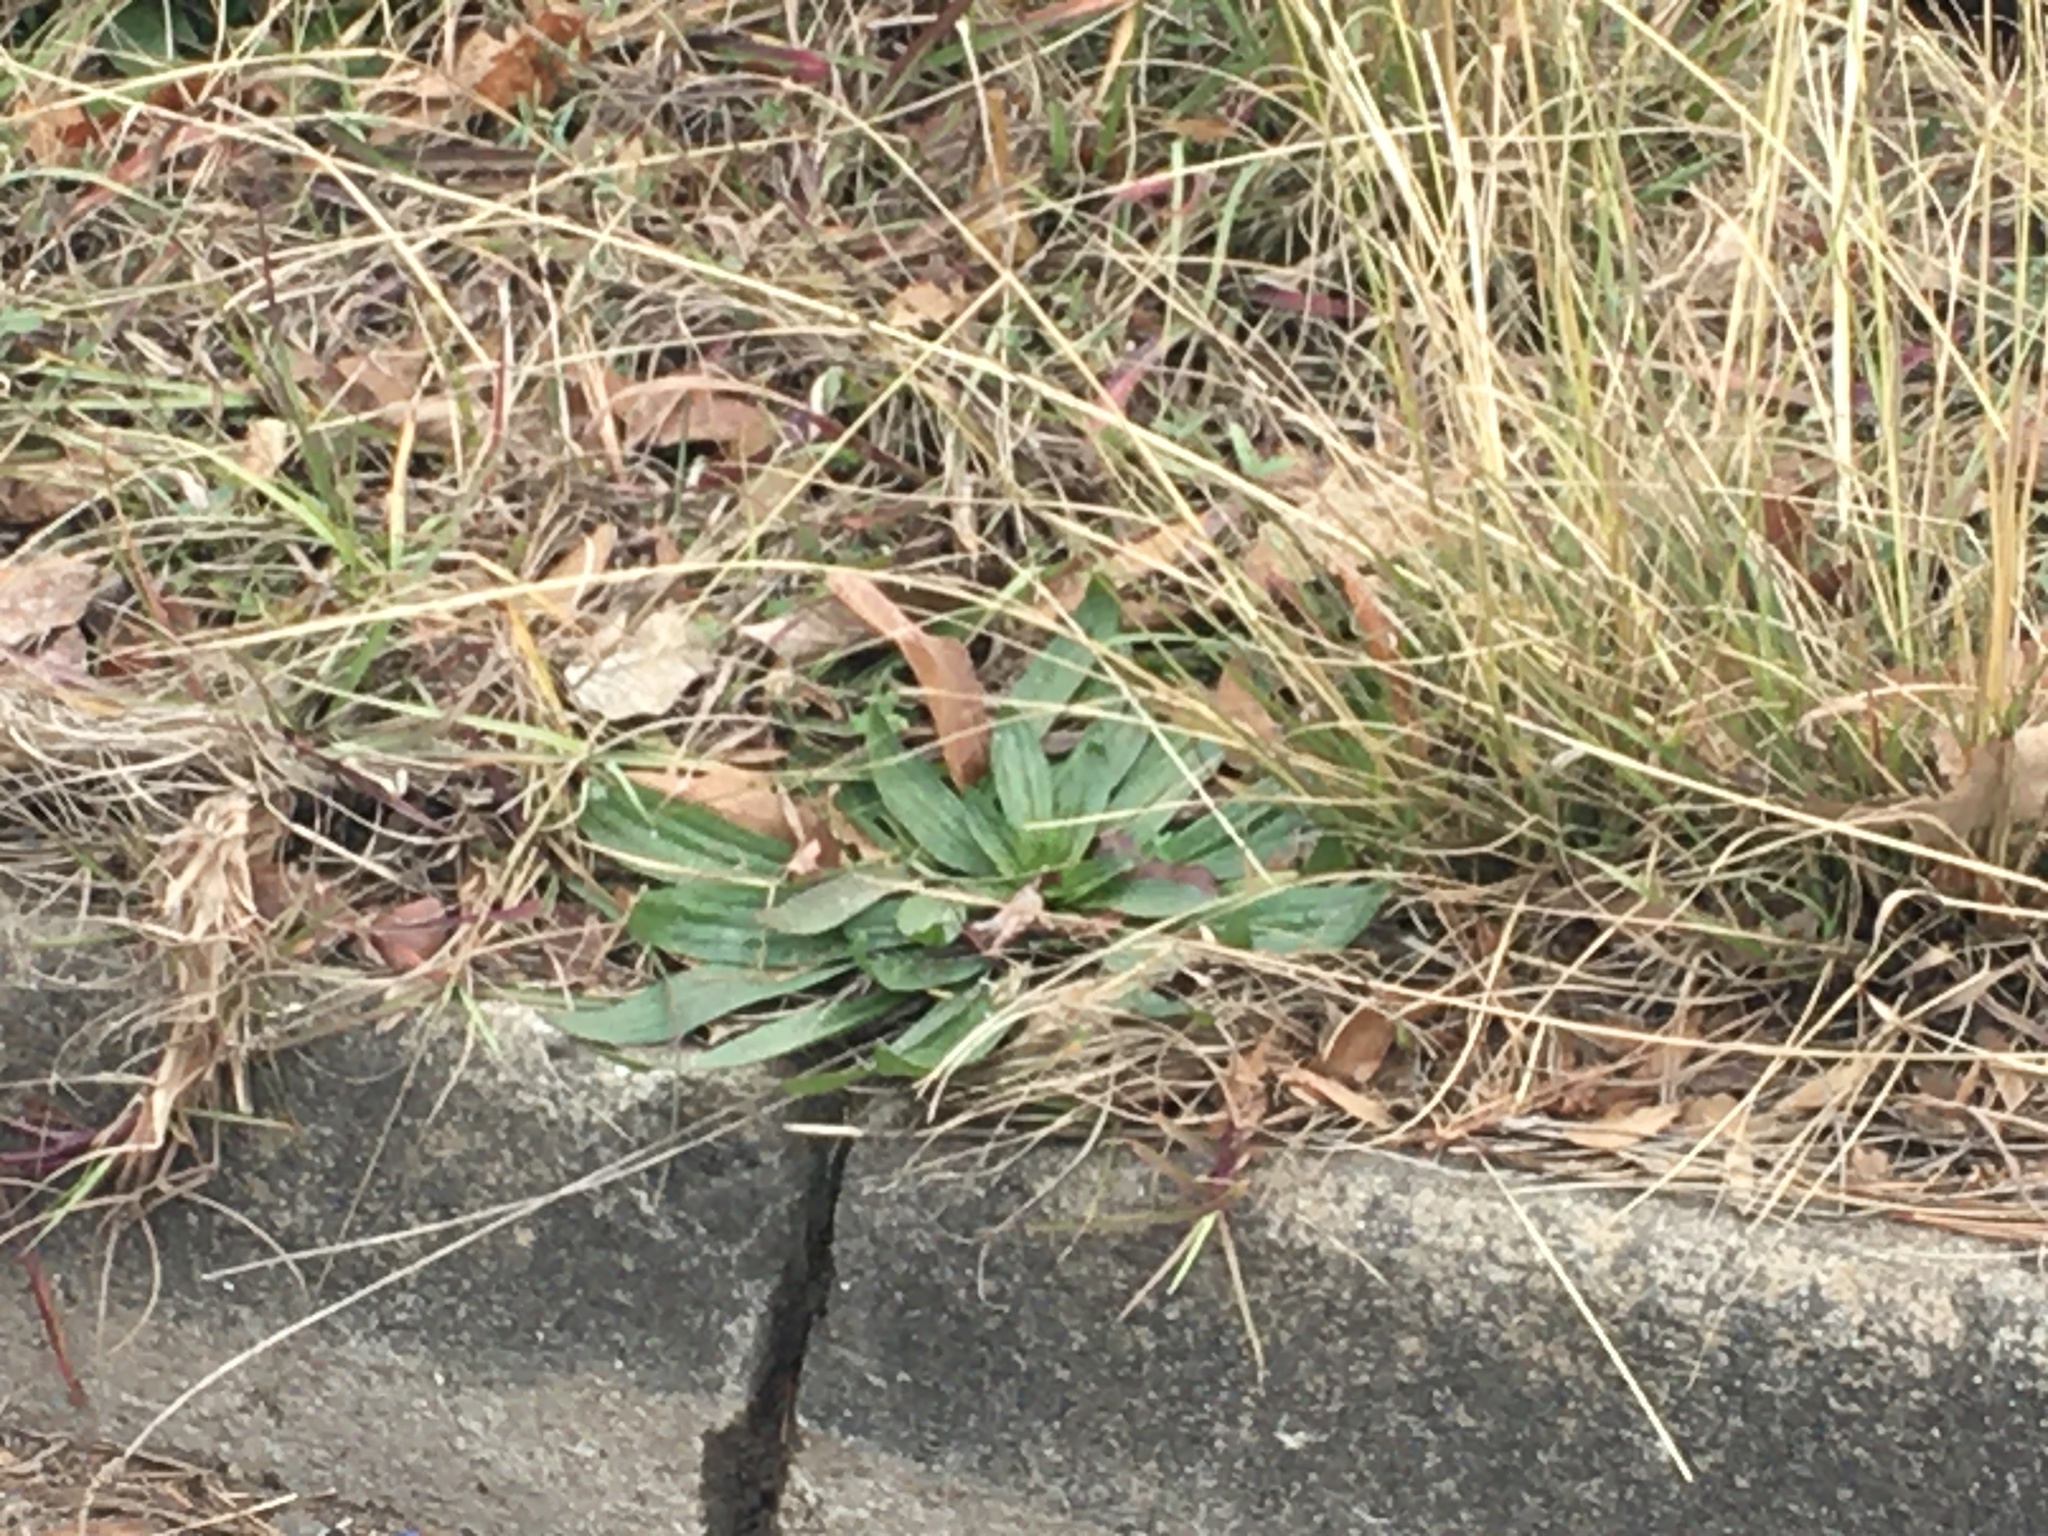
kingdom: Plantae
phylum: Tracheophyta
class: Magnoliopsida
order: Lamiales
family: Plantaginaceae
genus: Plantago
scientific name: Plantago lanceolata
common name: Ribwort plantain
